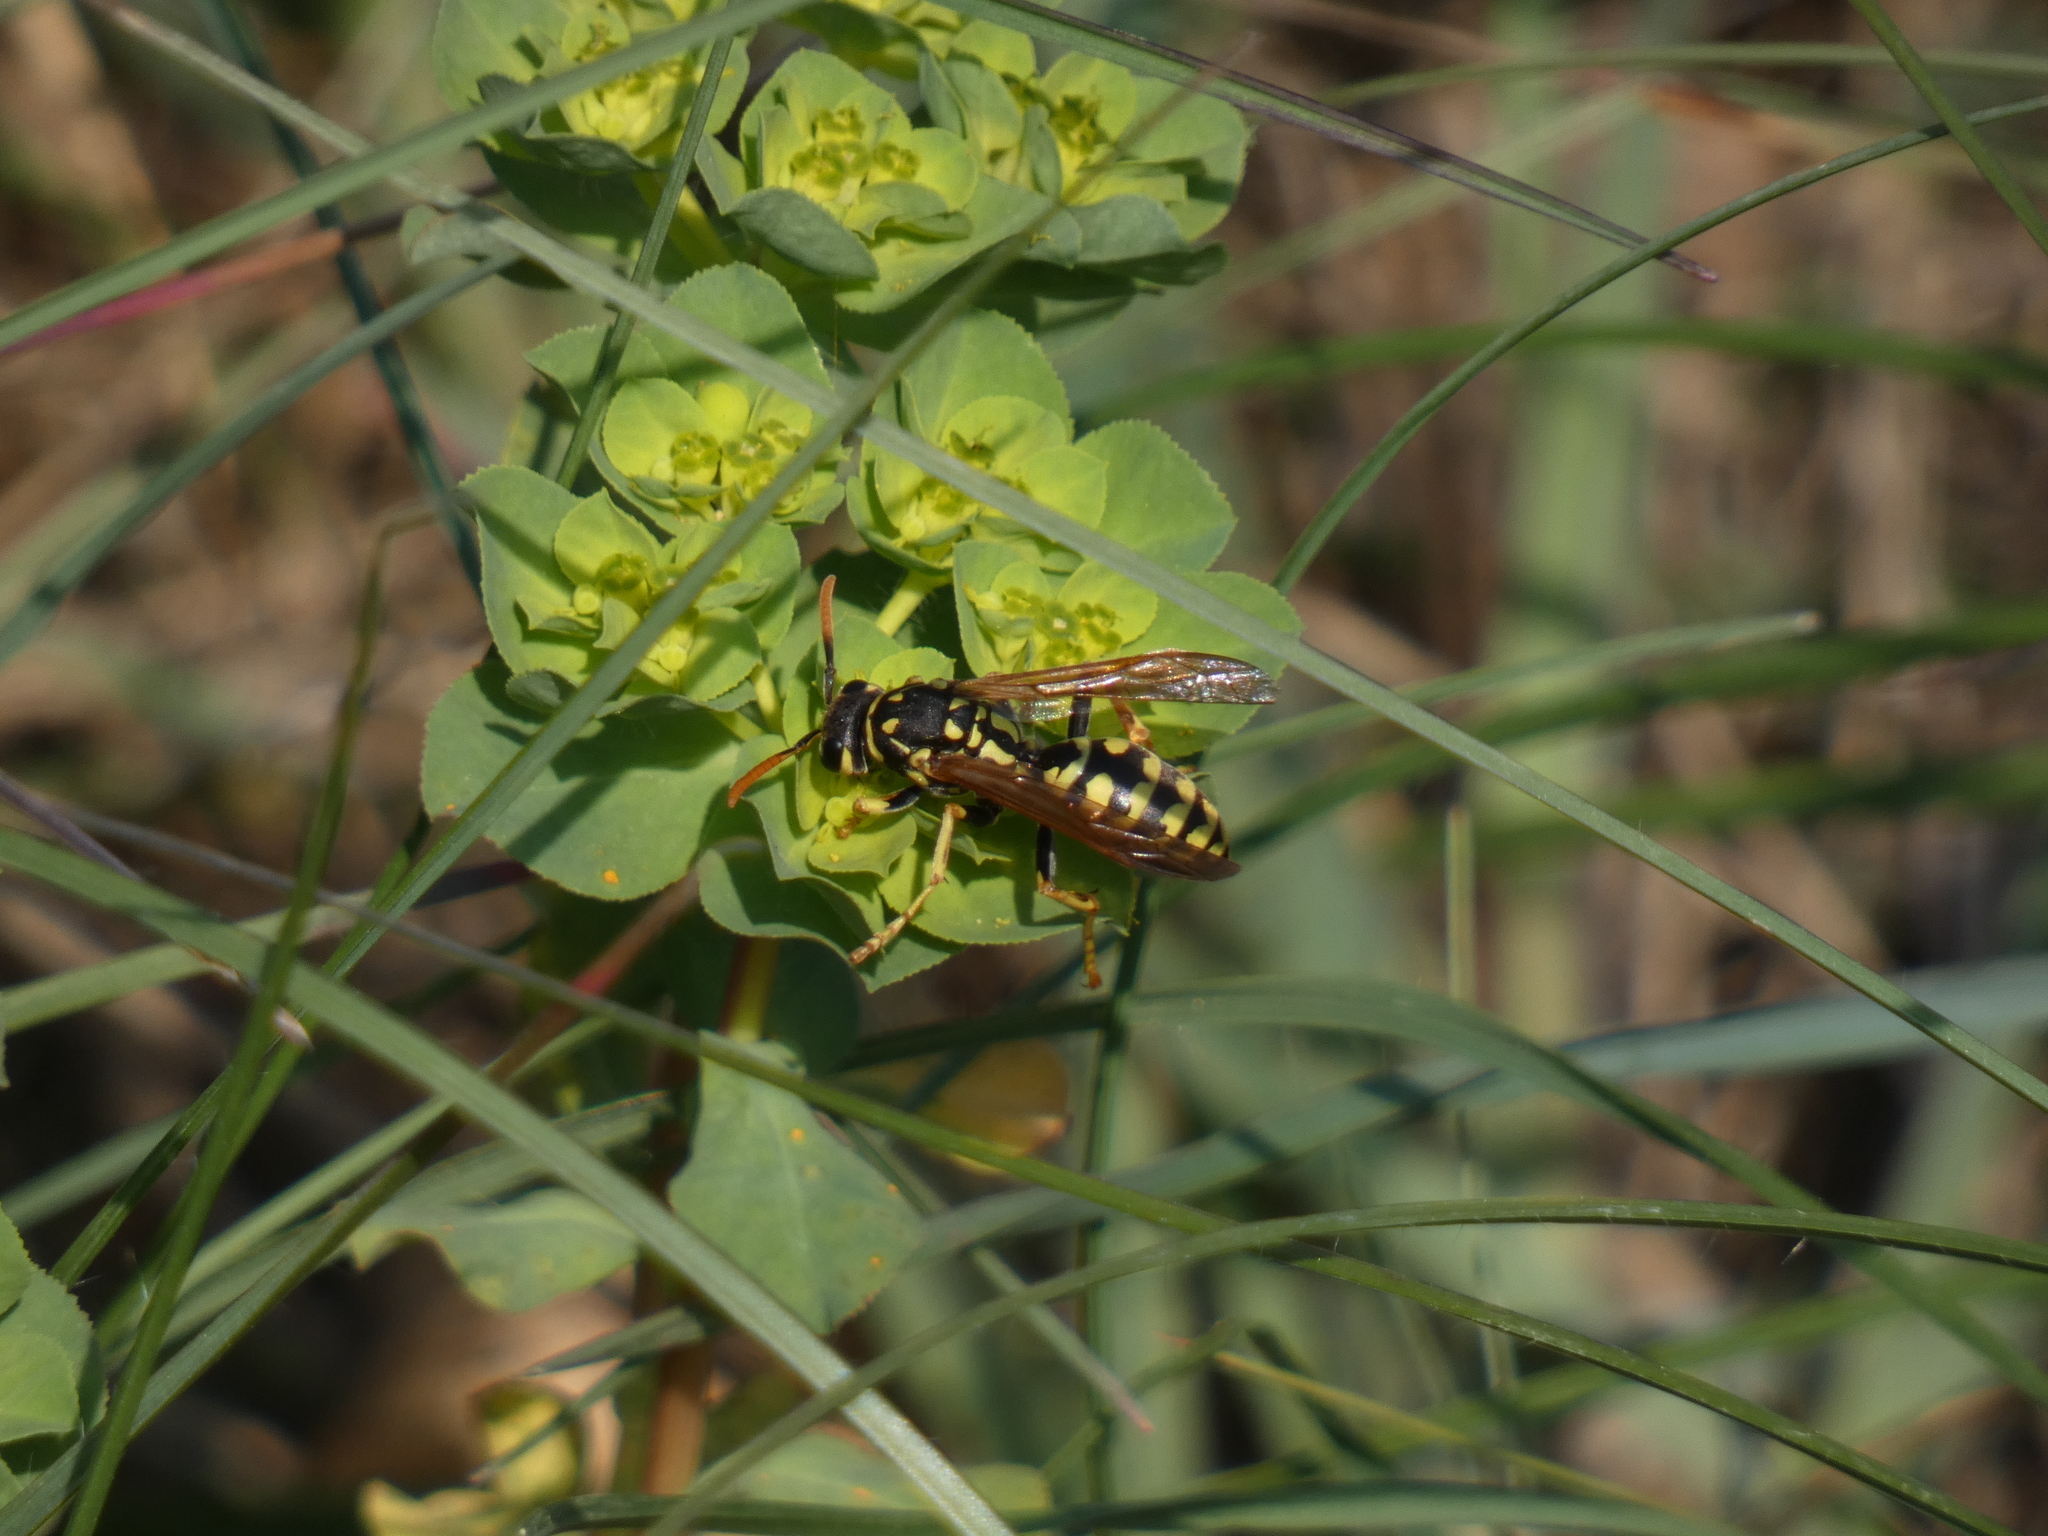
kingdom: Animalia
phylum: Arthropoda
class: Insecta
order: Hymenoptera
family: Eumenidae
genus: Polistes
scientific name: Polistes dominula
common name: Paper wasp
